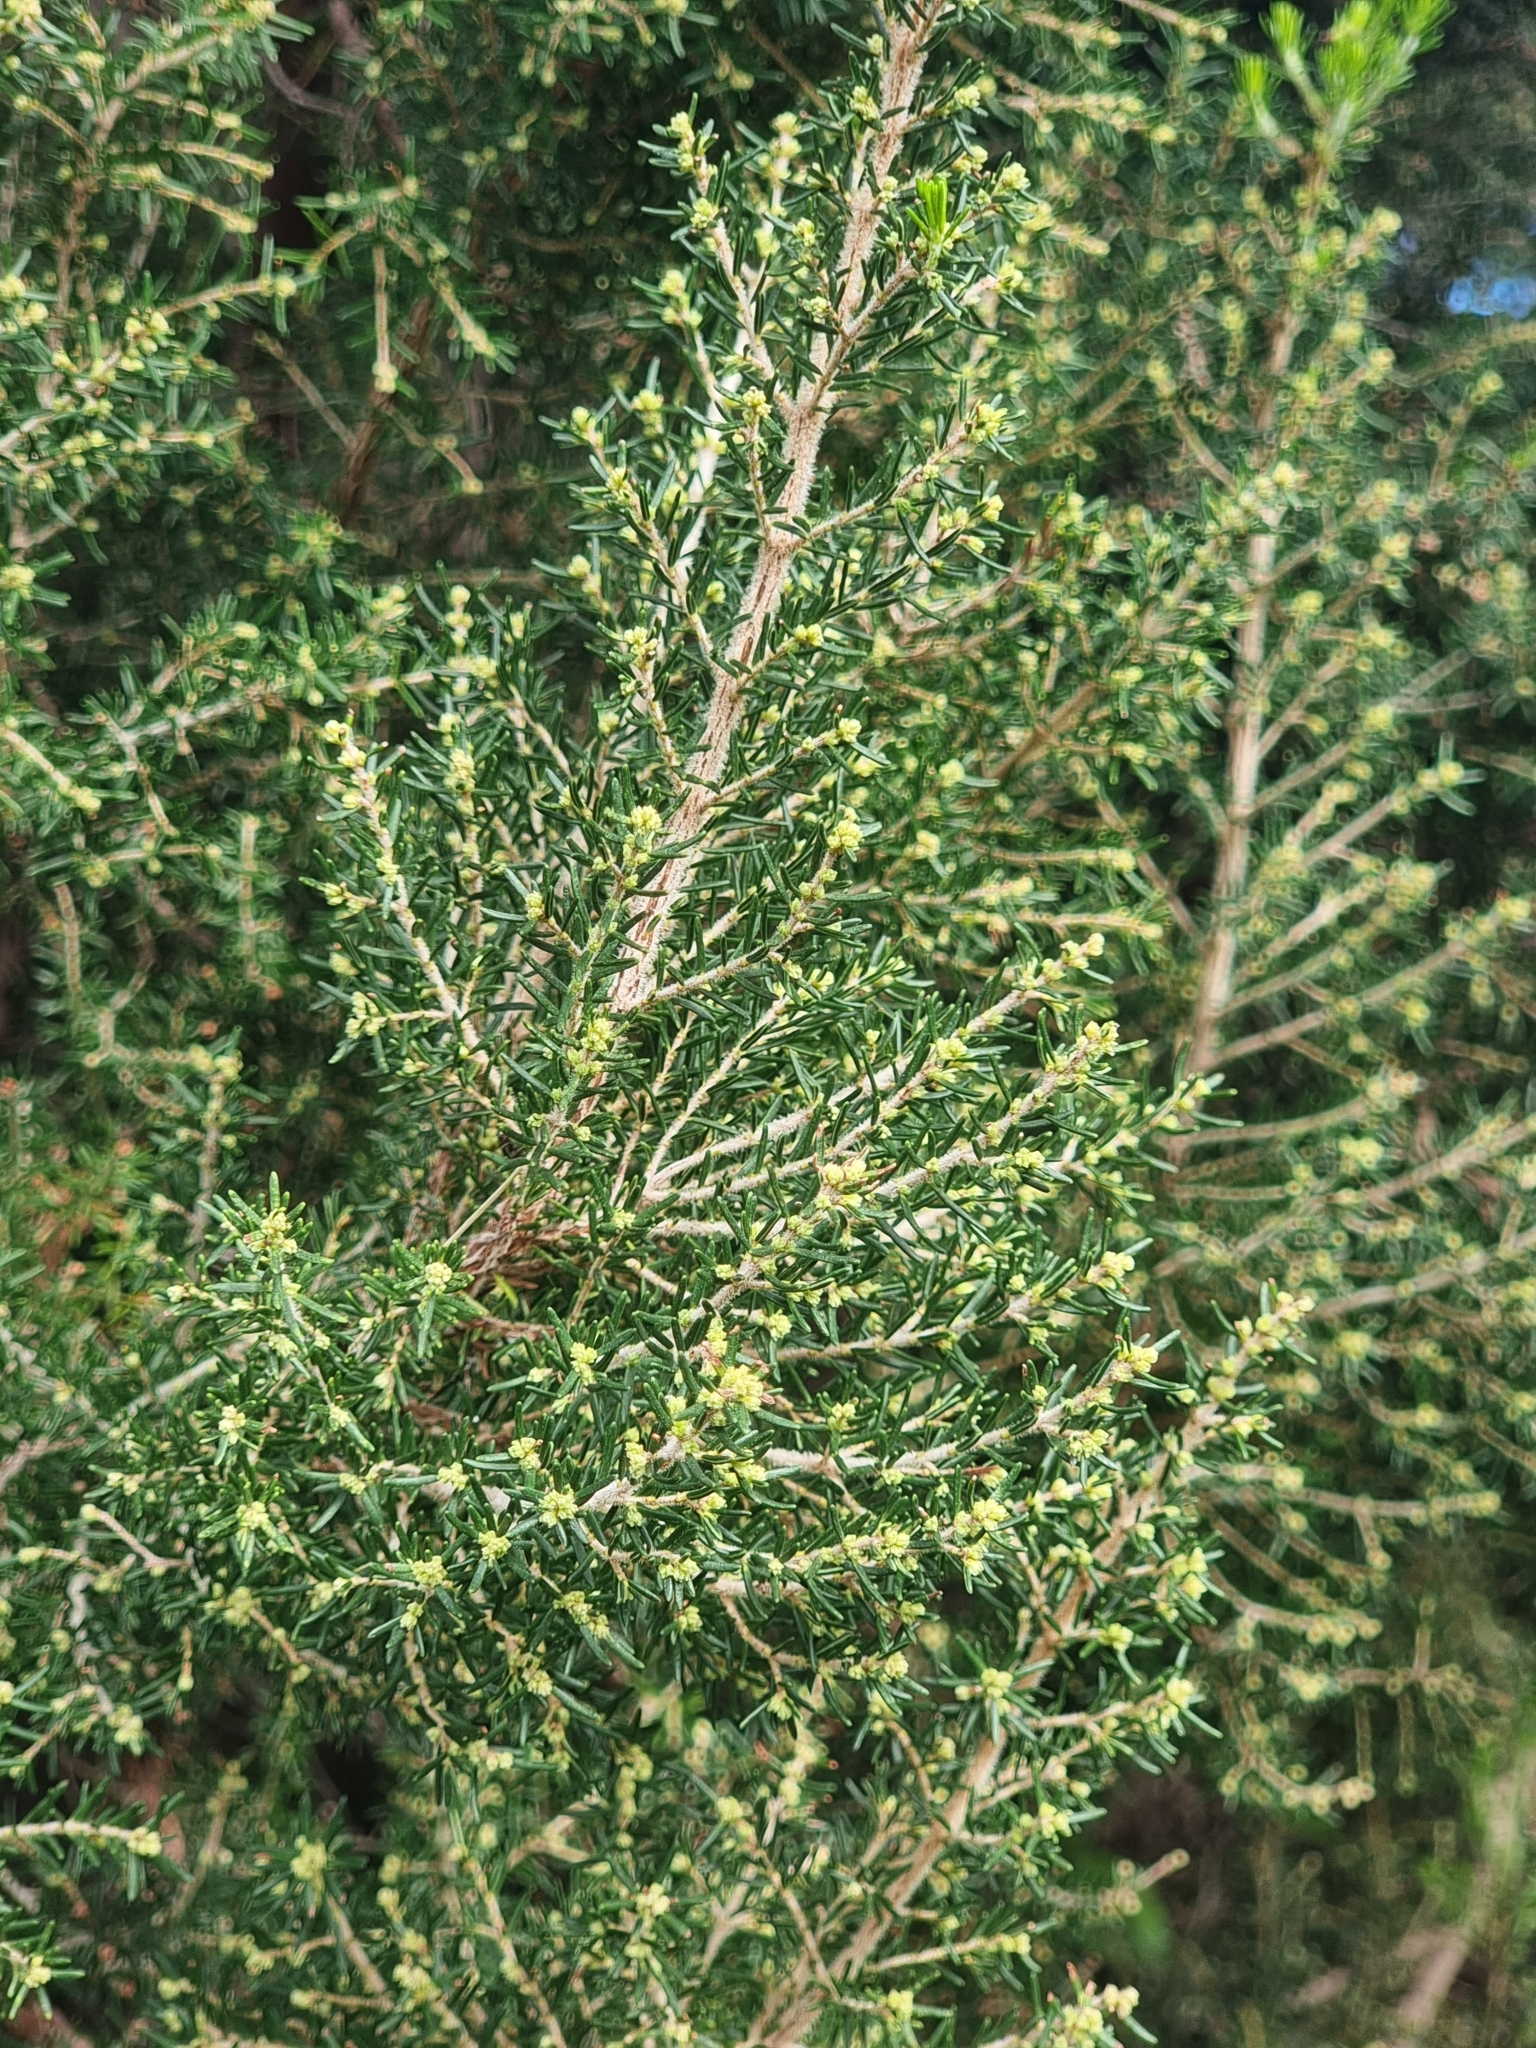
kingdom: Plantae
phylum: Tracheophyta
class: Magnoliopsida
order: Ericales
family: Ericaceae
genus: Erica
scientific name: Erica canariensis
